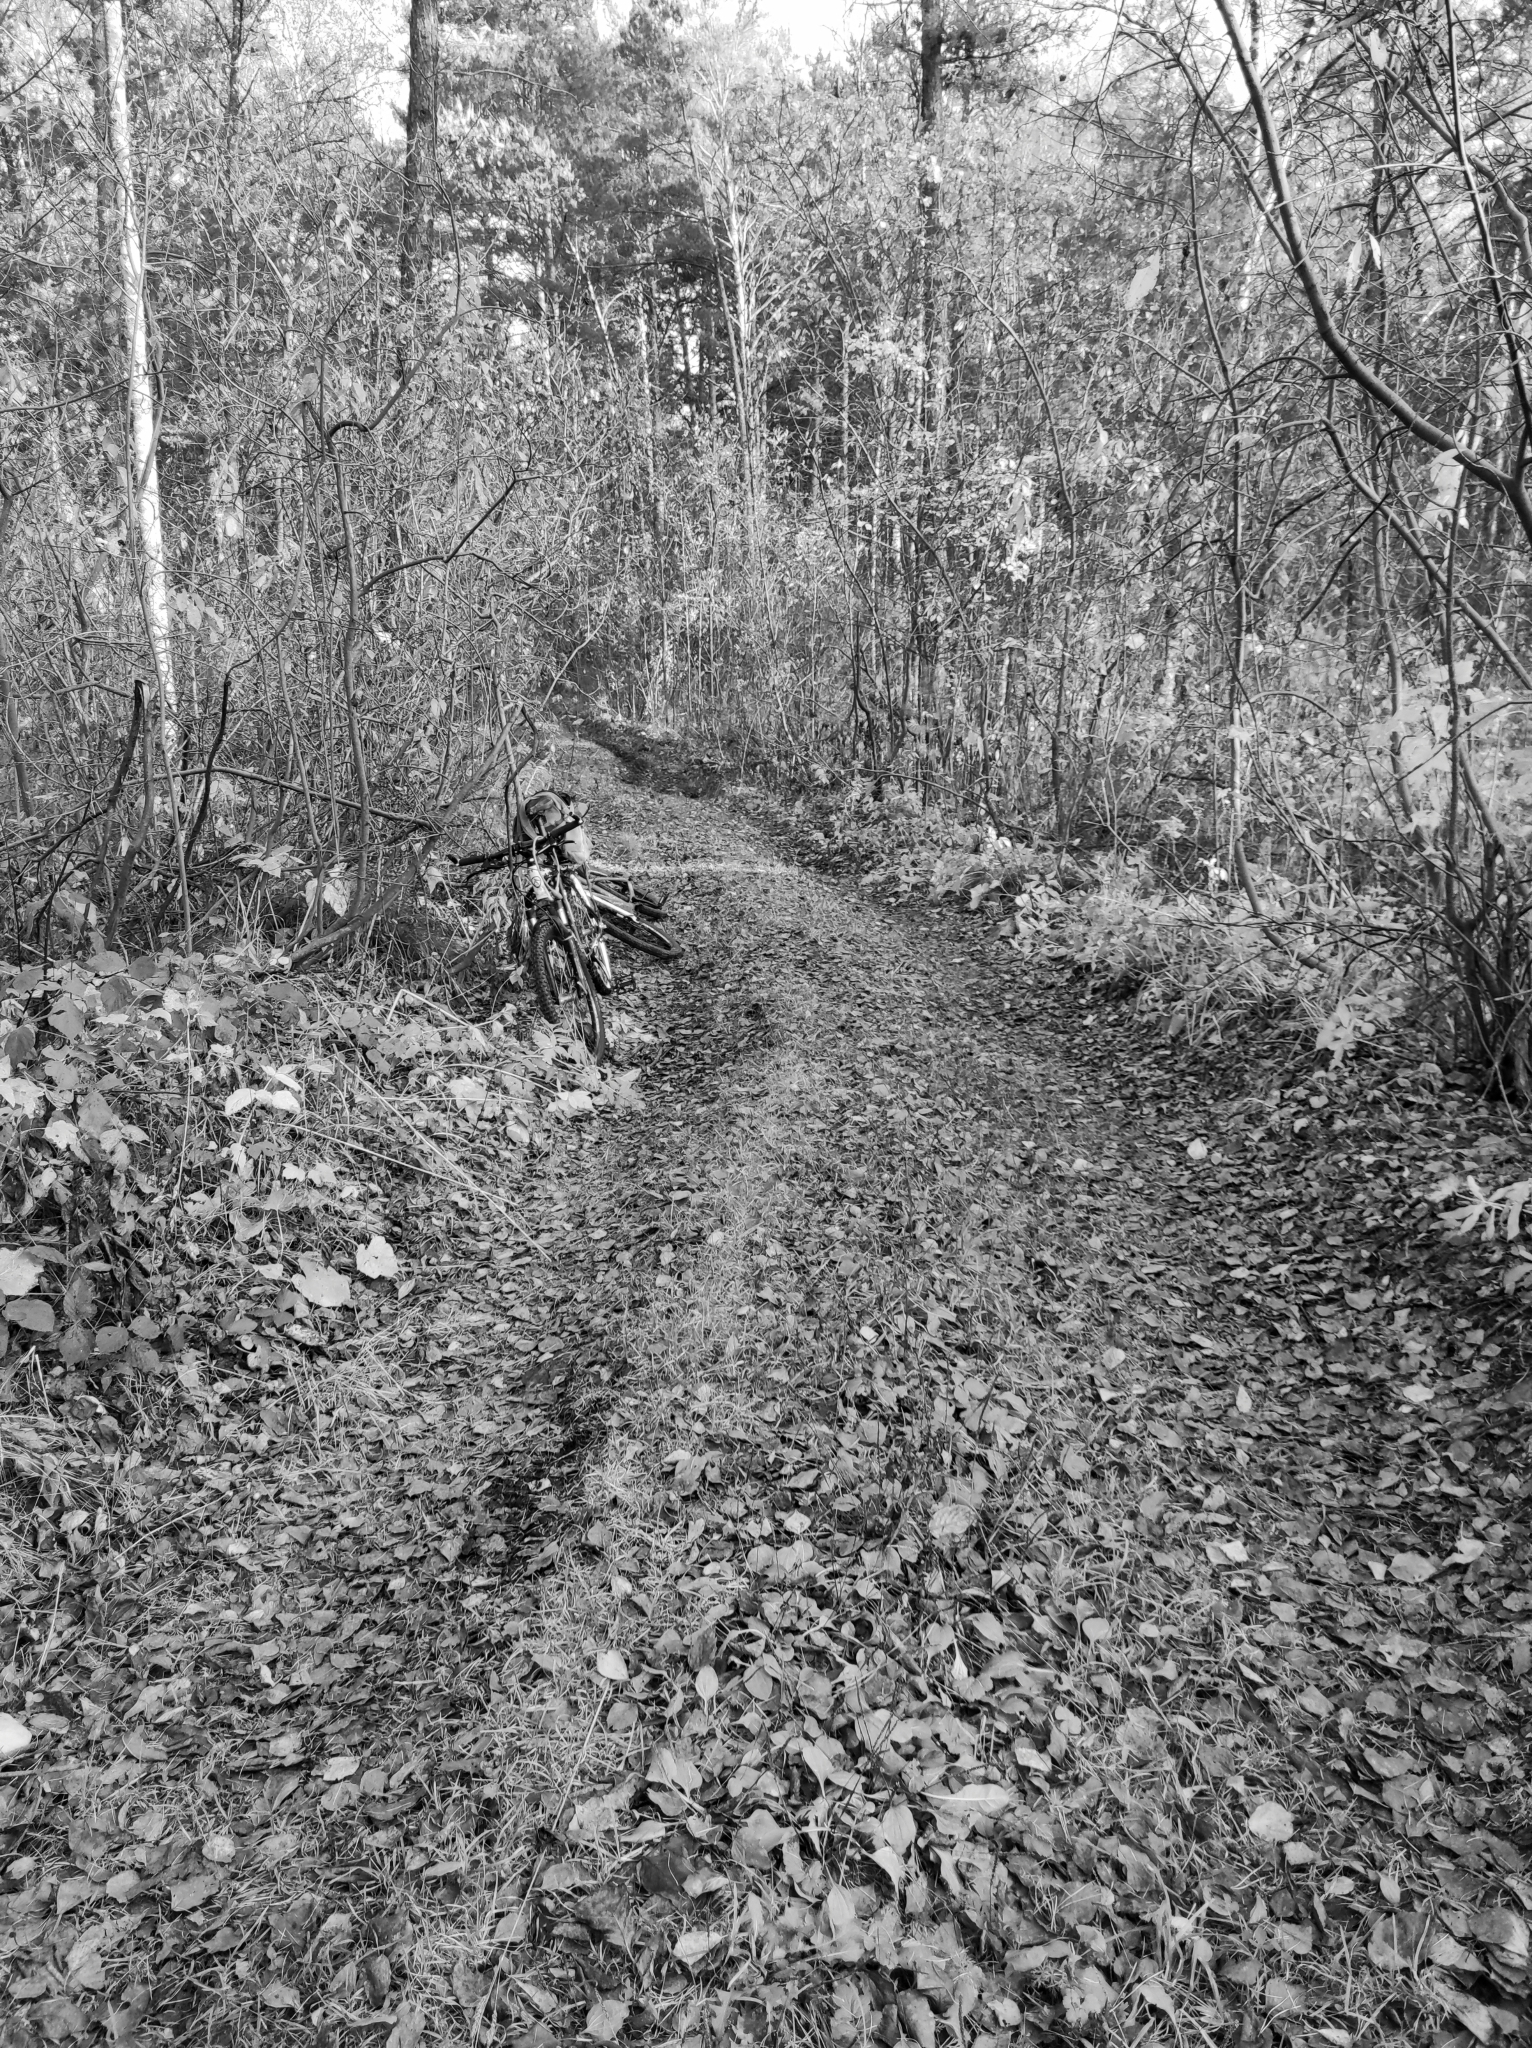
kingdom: Fungi
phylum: Basidiomycota
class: Agaricomycetes
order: Boletales
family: Suillaceae
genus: Suillus
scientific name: Suillus viscidus
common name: Sticky bolete
